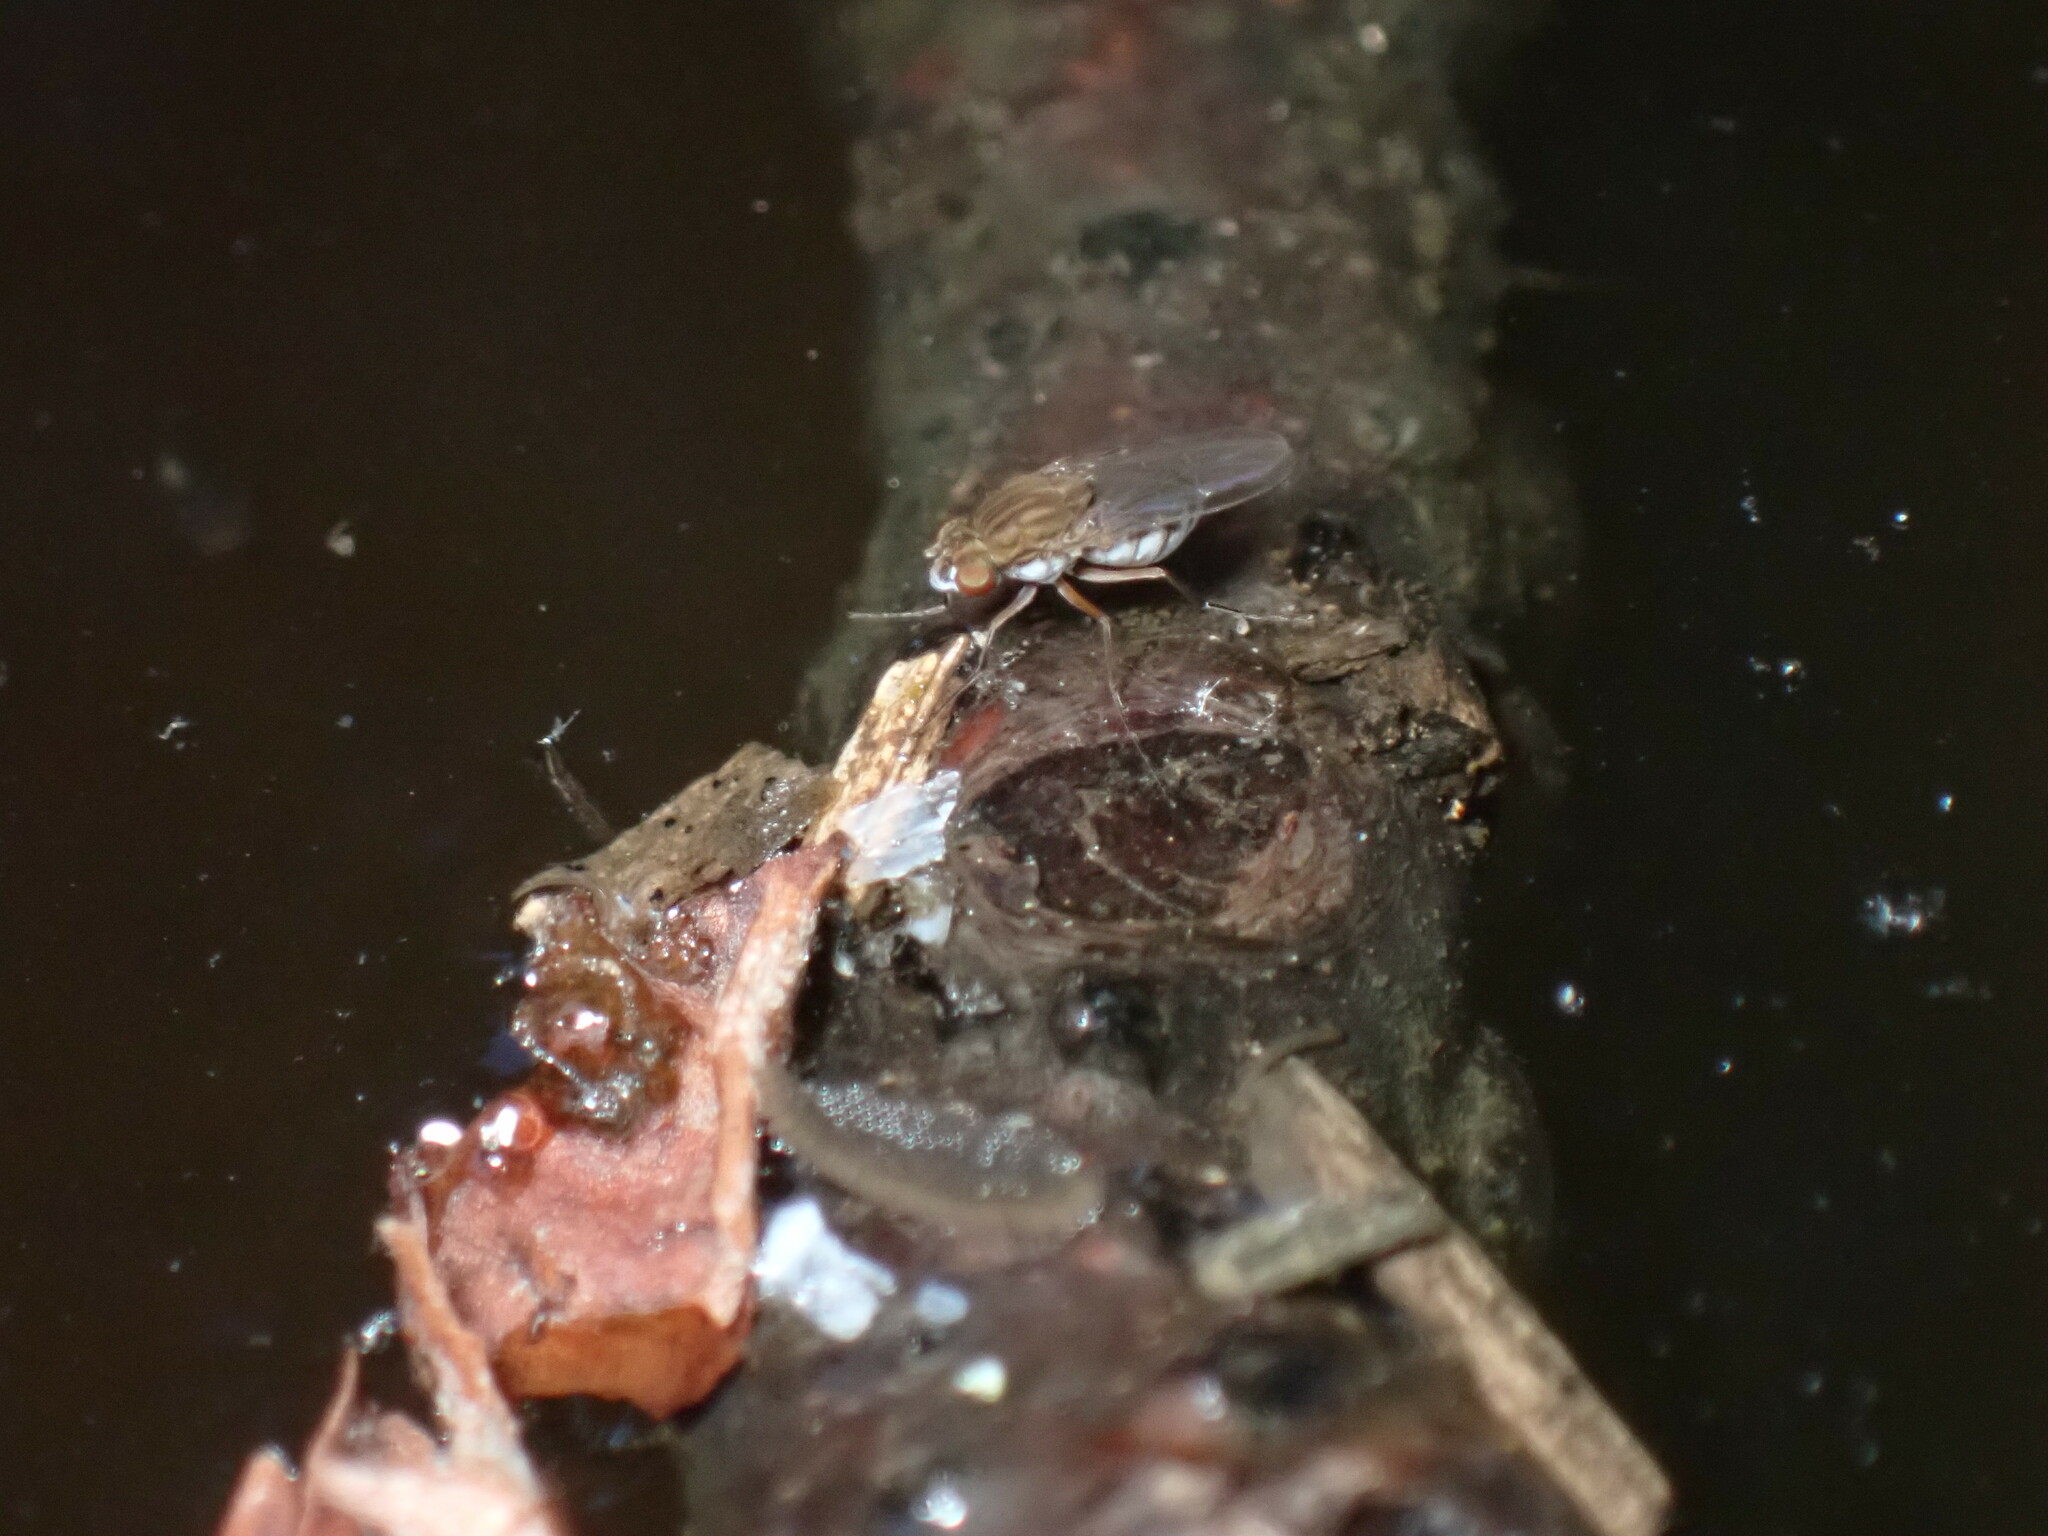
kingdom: Animalia
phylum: Arthropoda
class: Insecta
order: Diptera
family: Ephydridae
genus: Brachydeutera
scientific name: Brachydeutera argentata
